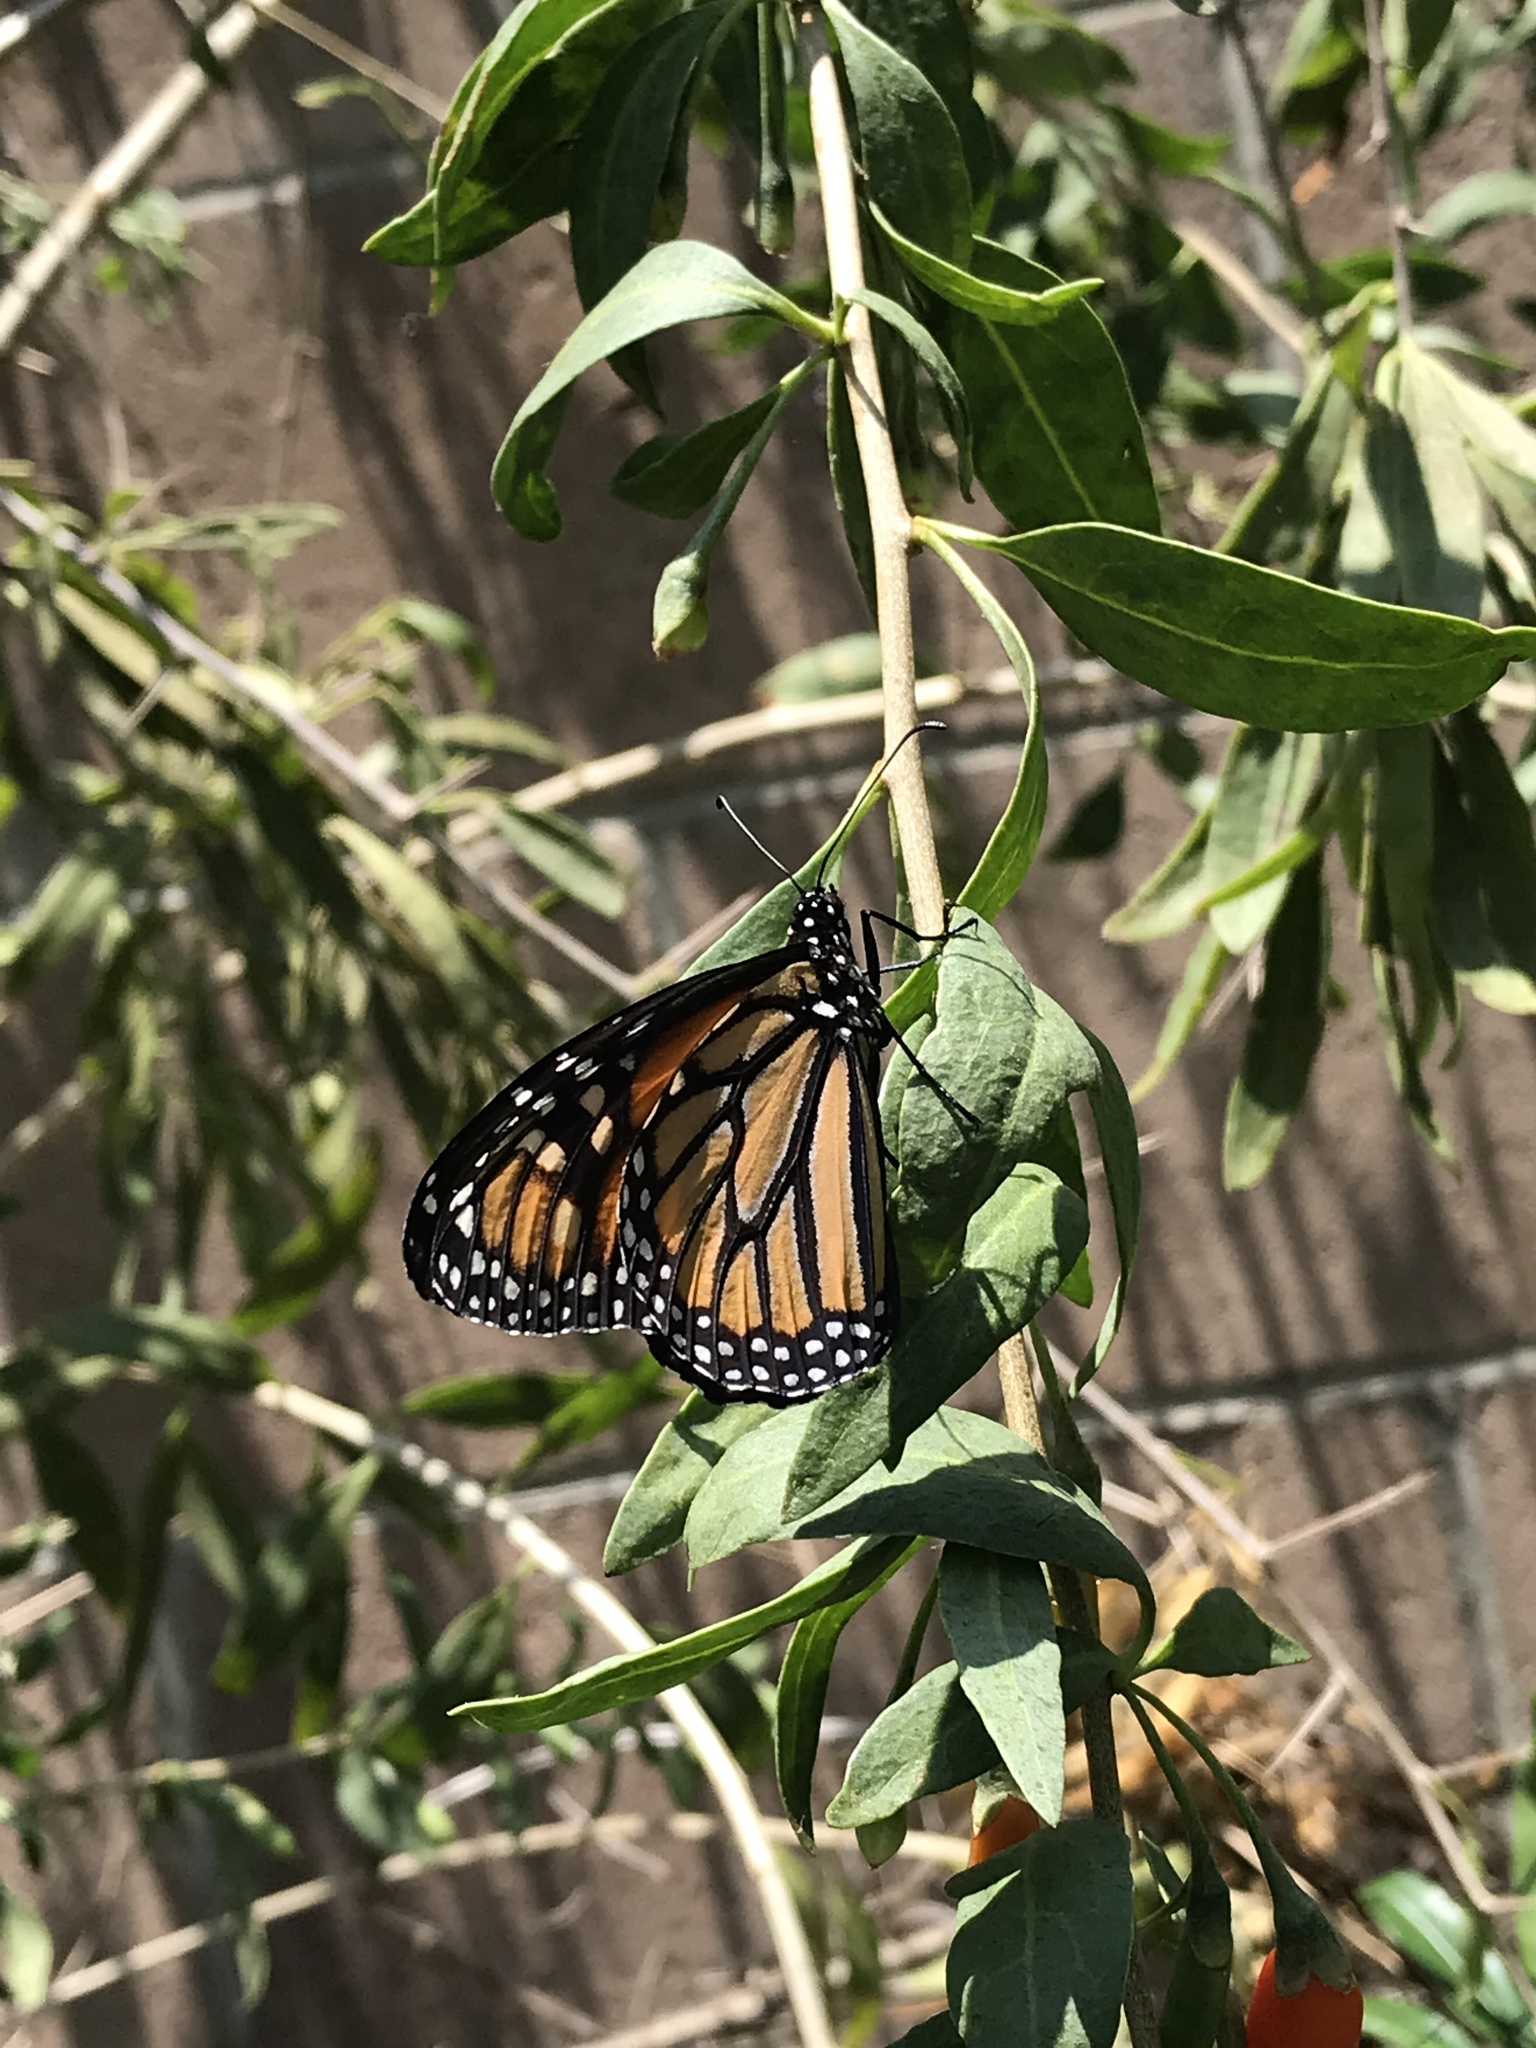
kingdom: Animalia
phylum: Arthropoda
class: Insecta
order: Lepidoptera
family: Nymphalidae
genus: Danaus
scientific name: Danaus plexippus
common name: Monarch
